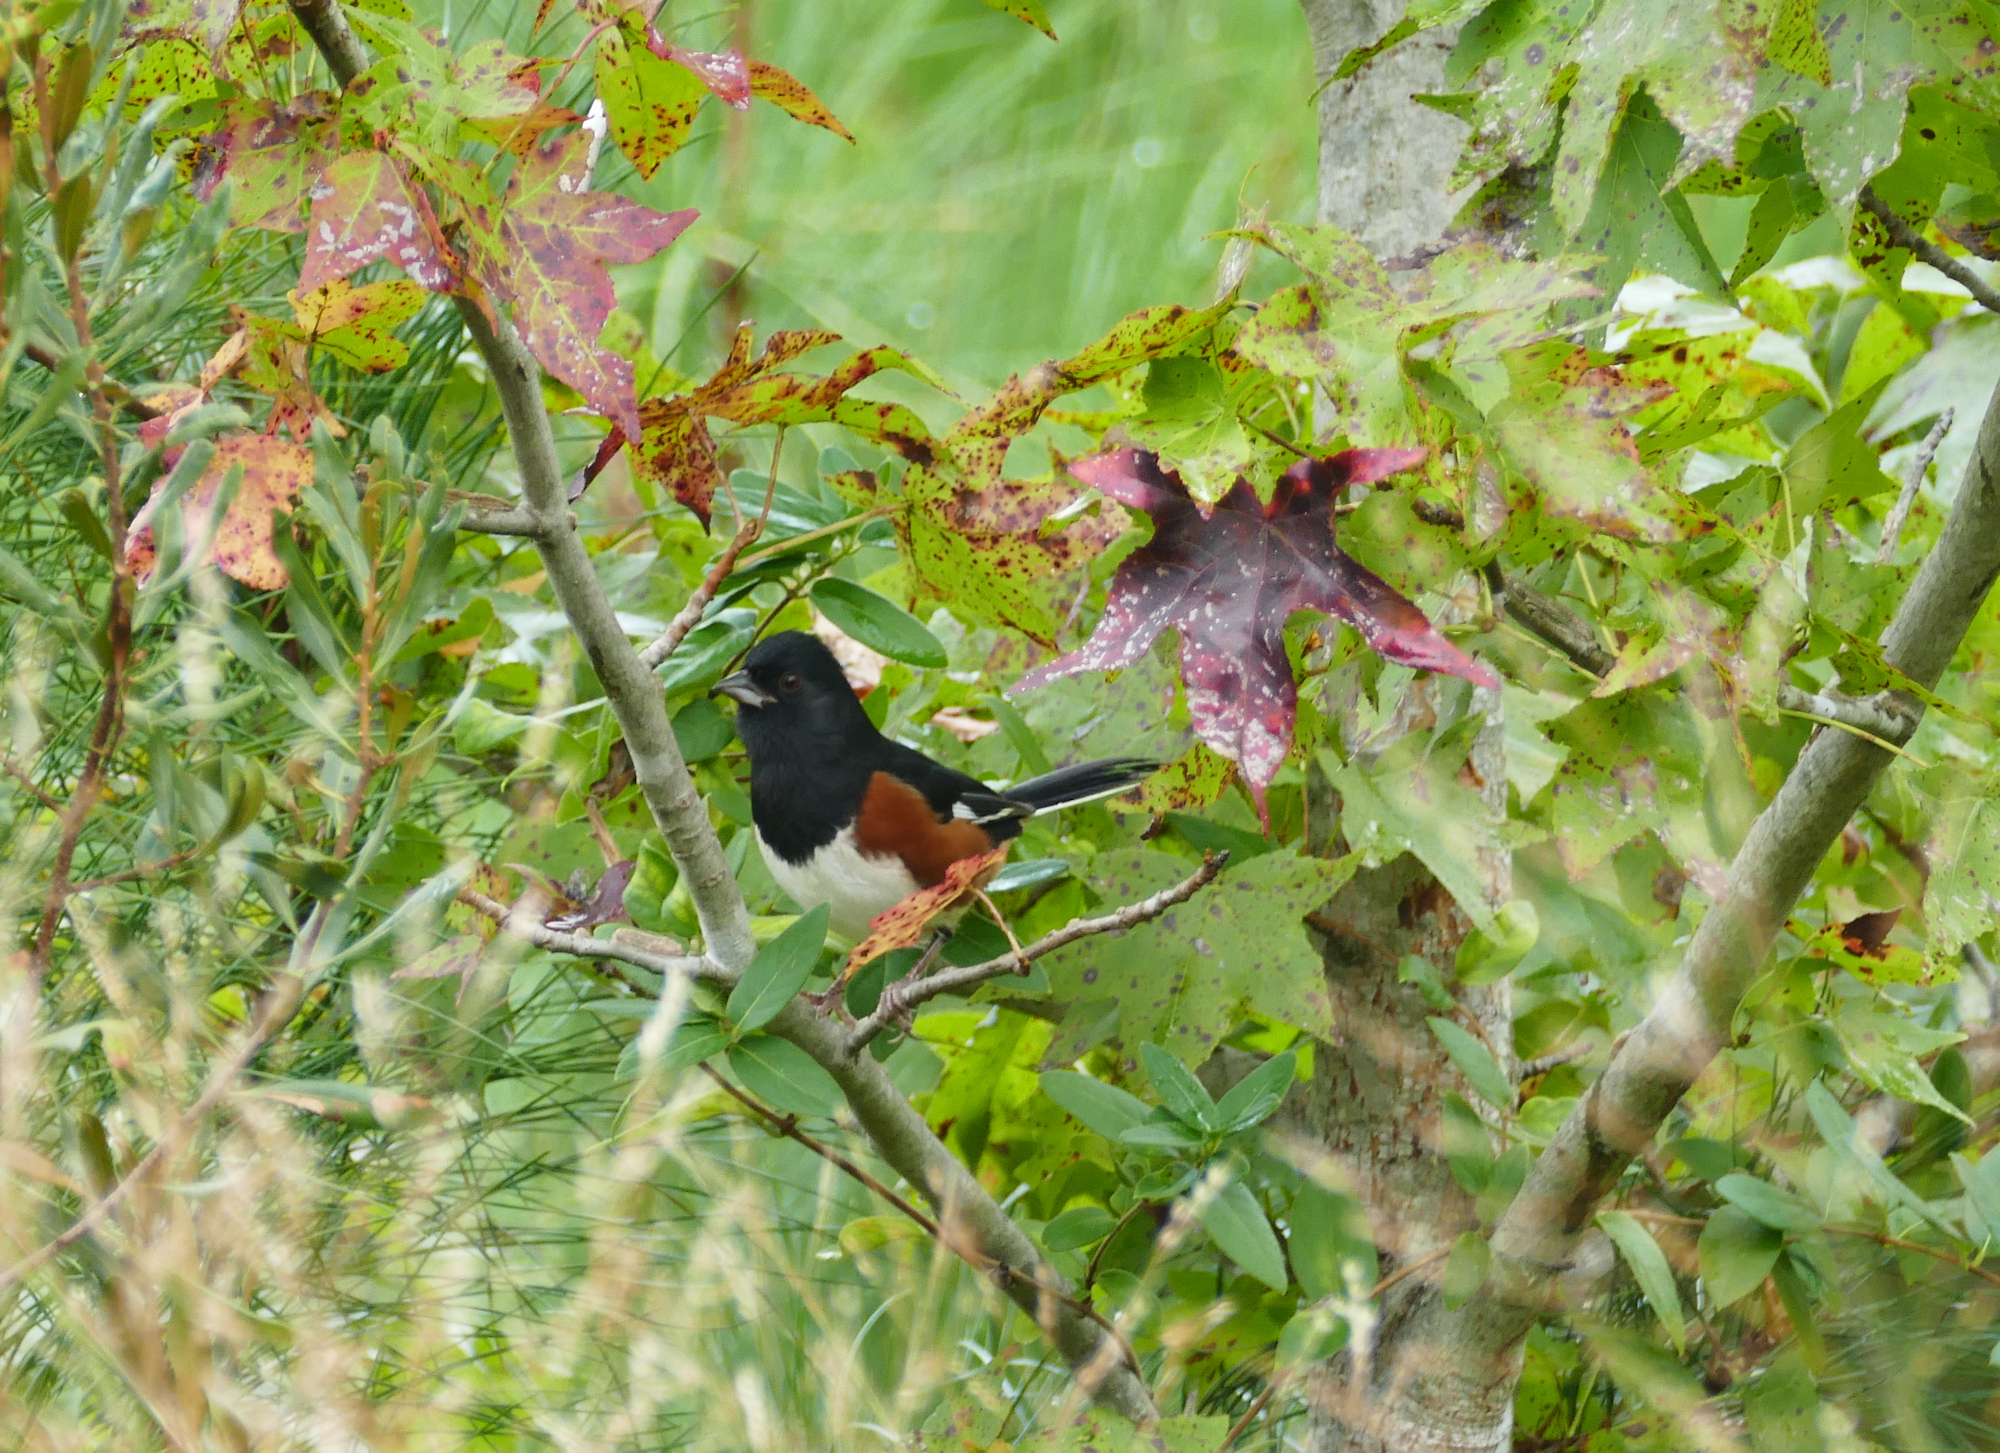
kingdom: Animalia
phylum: Chordata
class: Aves
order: Passeriformes
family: Passerellidae
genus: Pipilo
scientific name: Pipilo erythrophthalmus
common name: Eastern towhee
